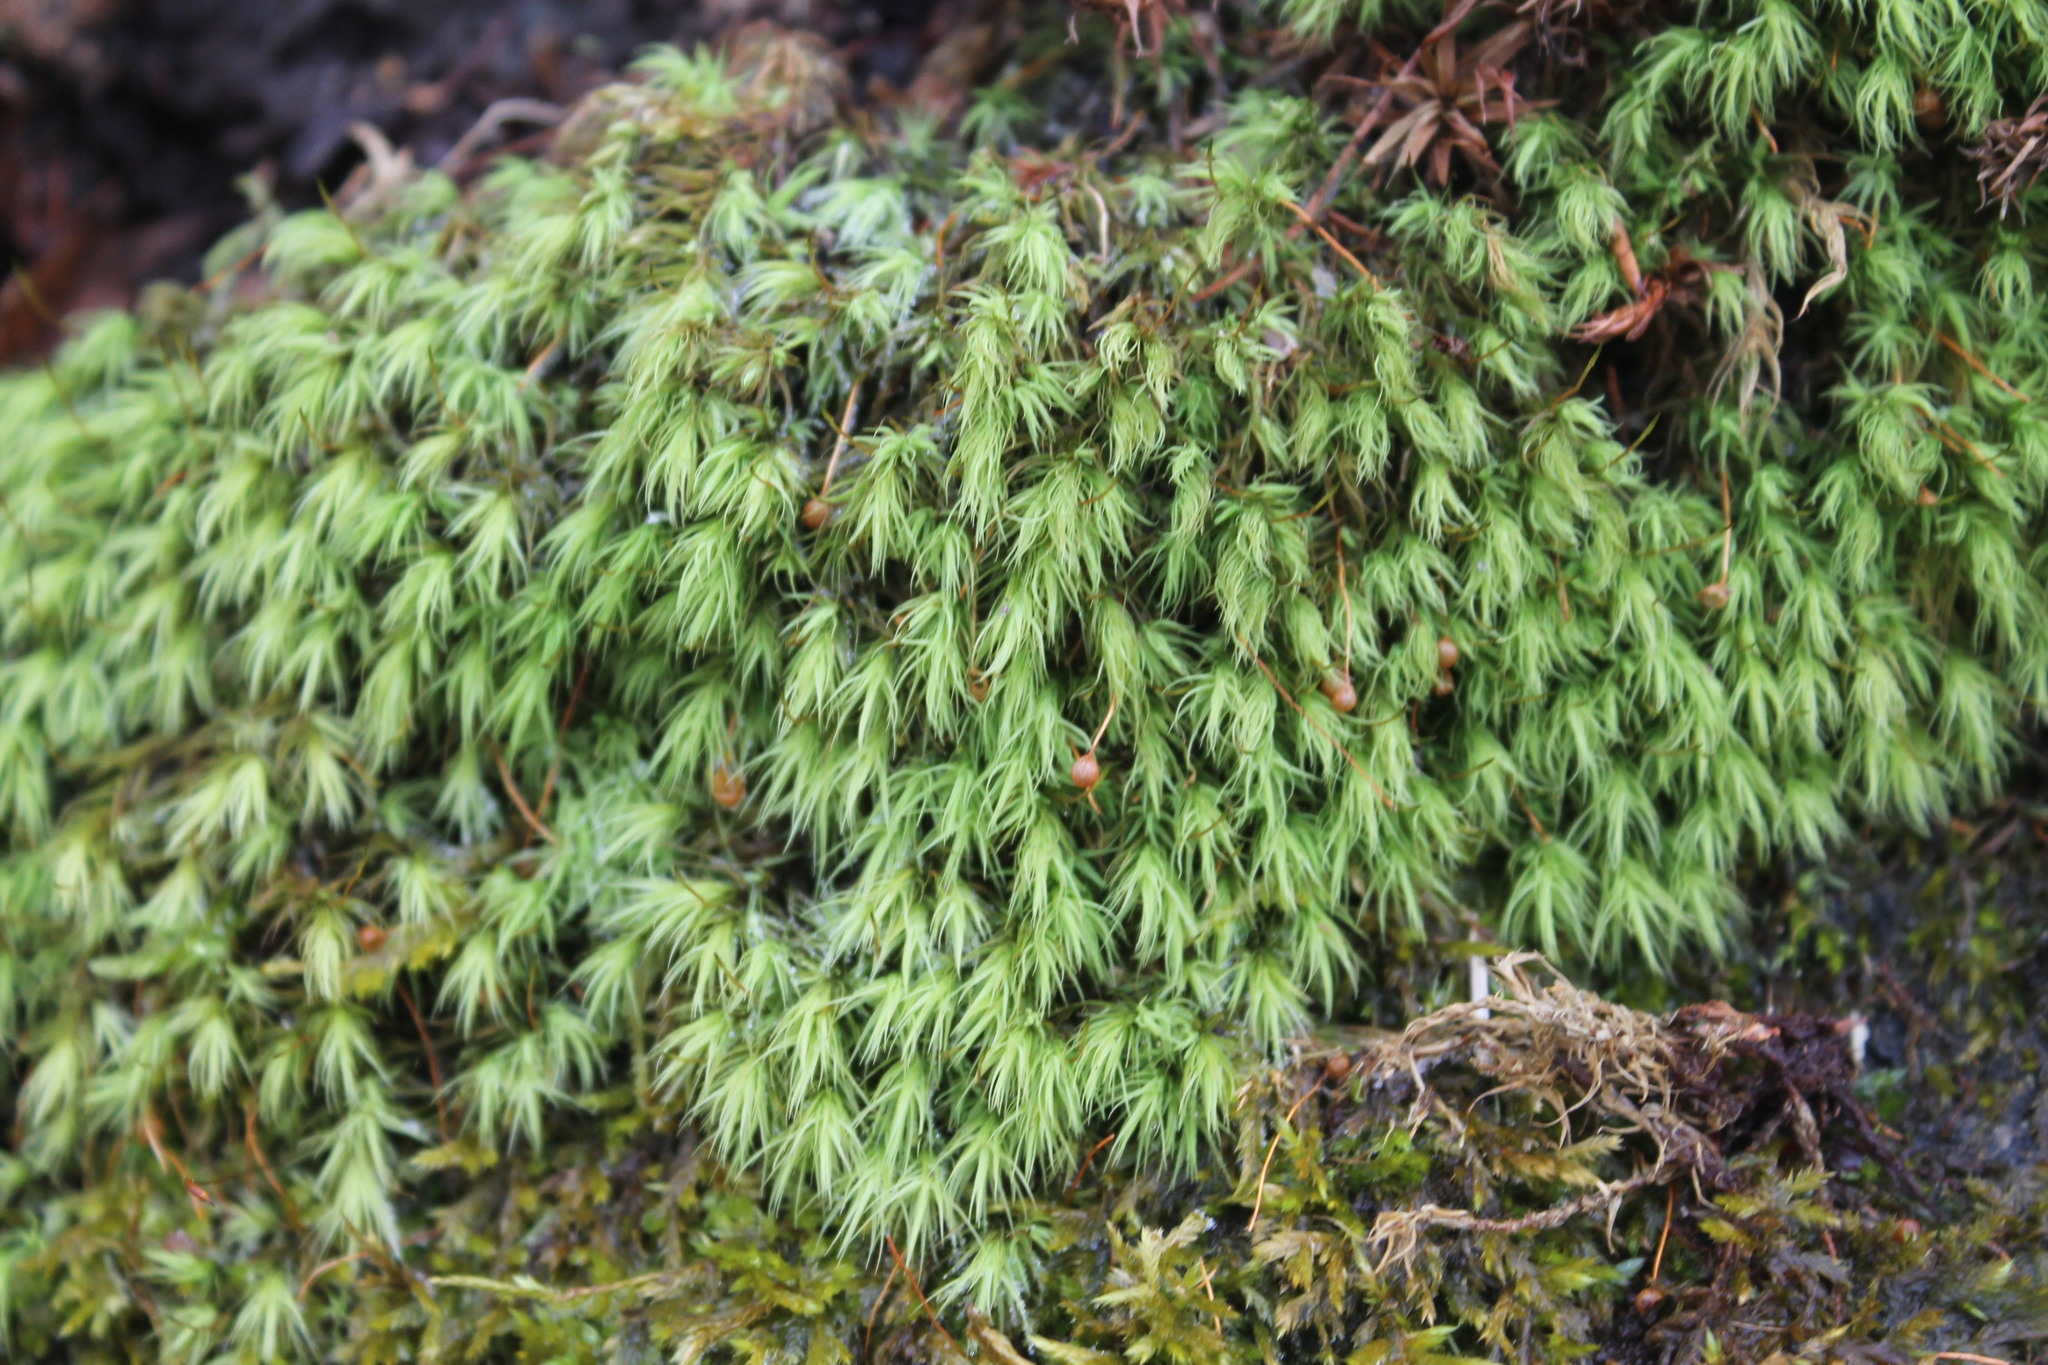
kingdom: Plantae
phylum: Bryophyta
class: Bryopsida
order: Bartramiales
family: Bartramiaceae
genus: Bartramia
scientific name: Bartramia ithyphylla
